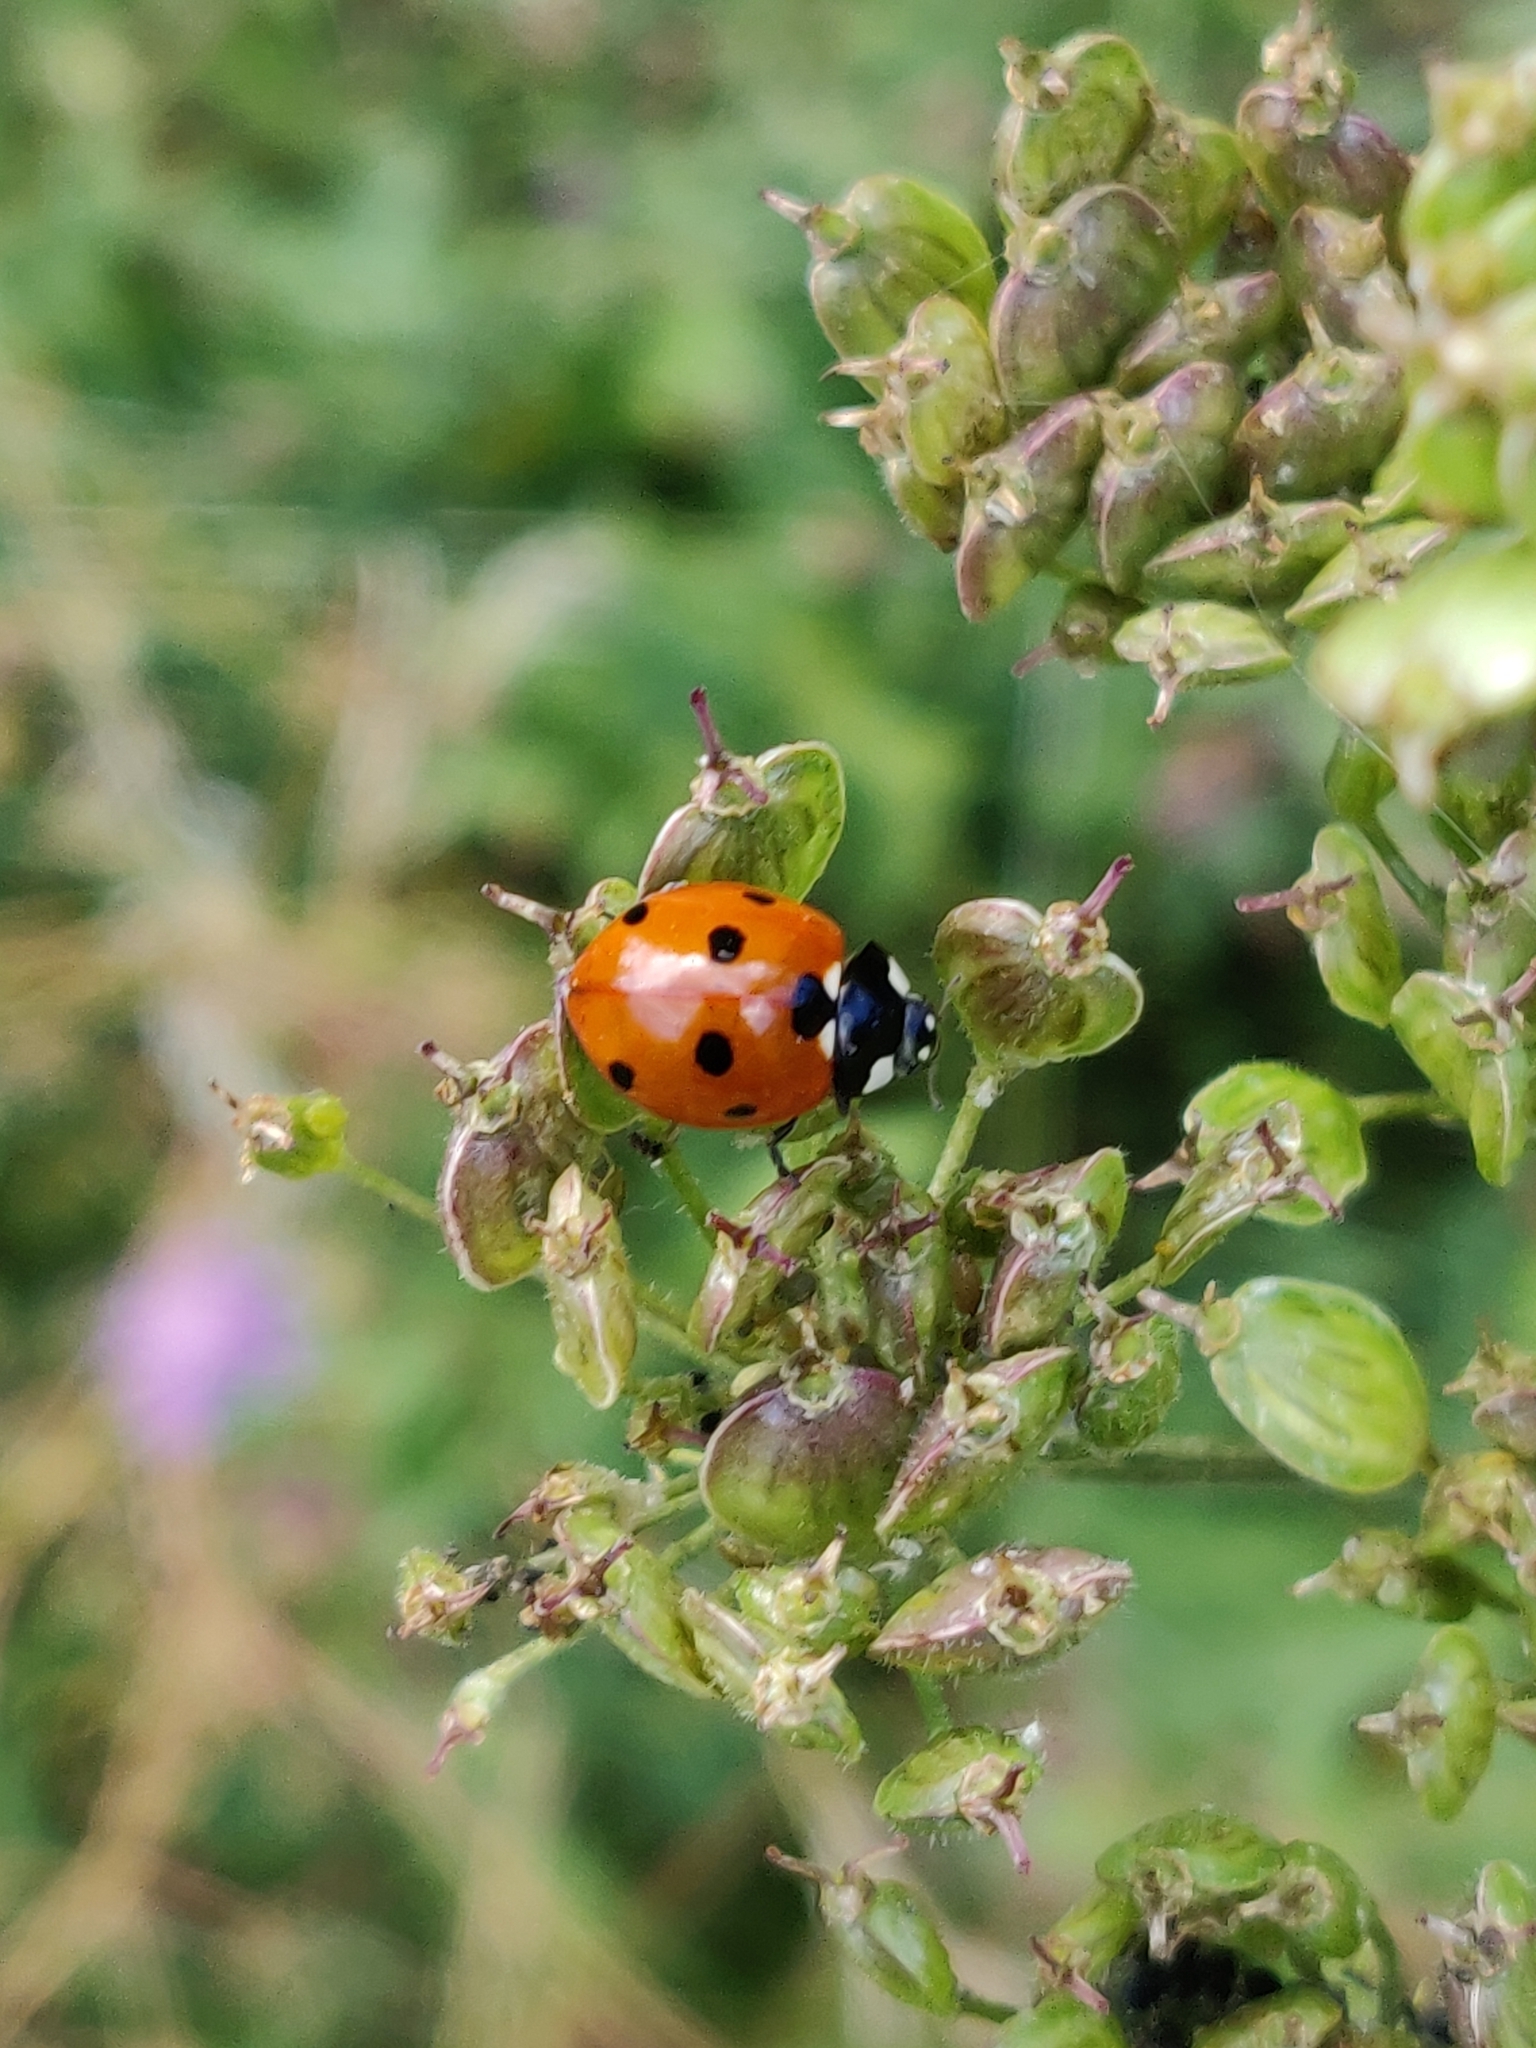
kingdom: Animalia
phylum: Arthropoda
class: Insecta
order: Coleoptera
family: Coccinellidae
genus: Coccinella
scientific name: Coccinella septempunctata
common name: Sevenspotted lady beetle
